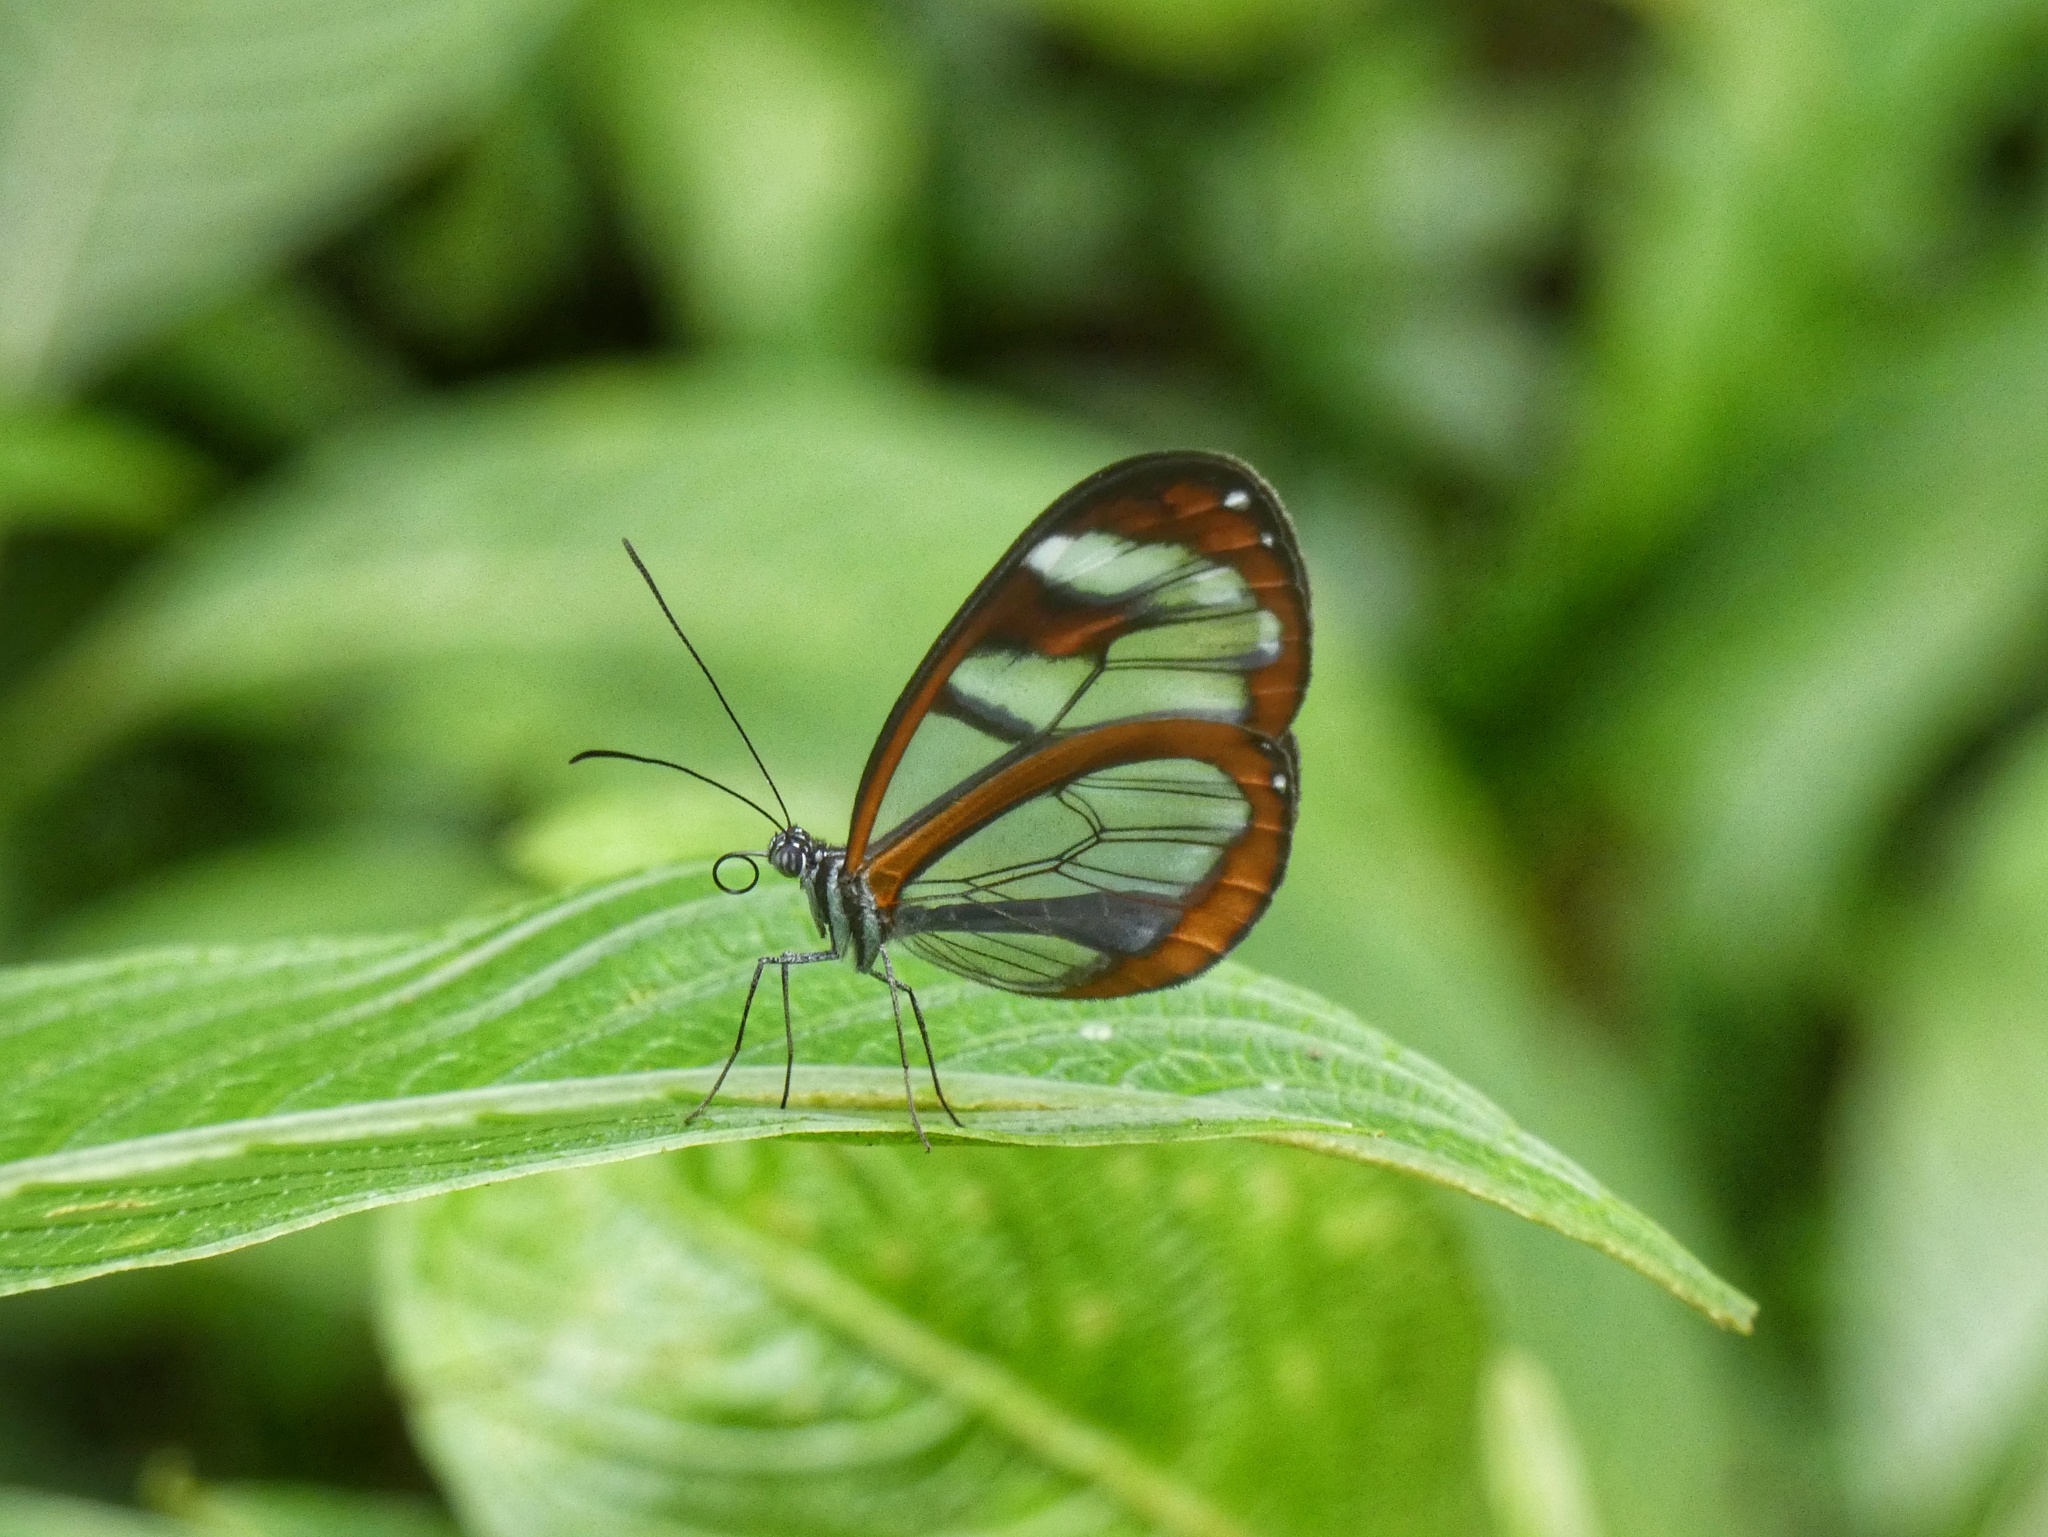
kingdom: Animalia
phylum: Arthropoda
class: Insecta
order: Lepidoptera
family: Nymphalidae
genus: Oleria
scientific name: Oleria rubescens
